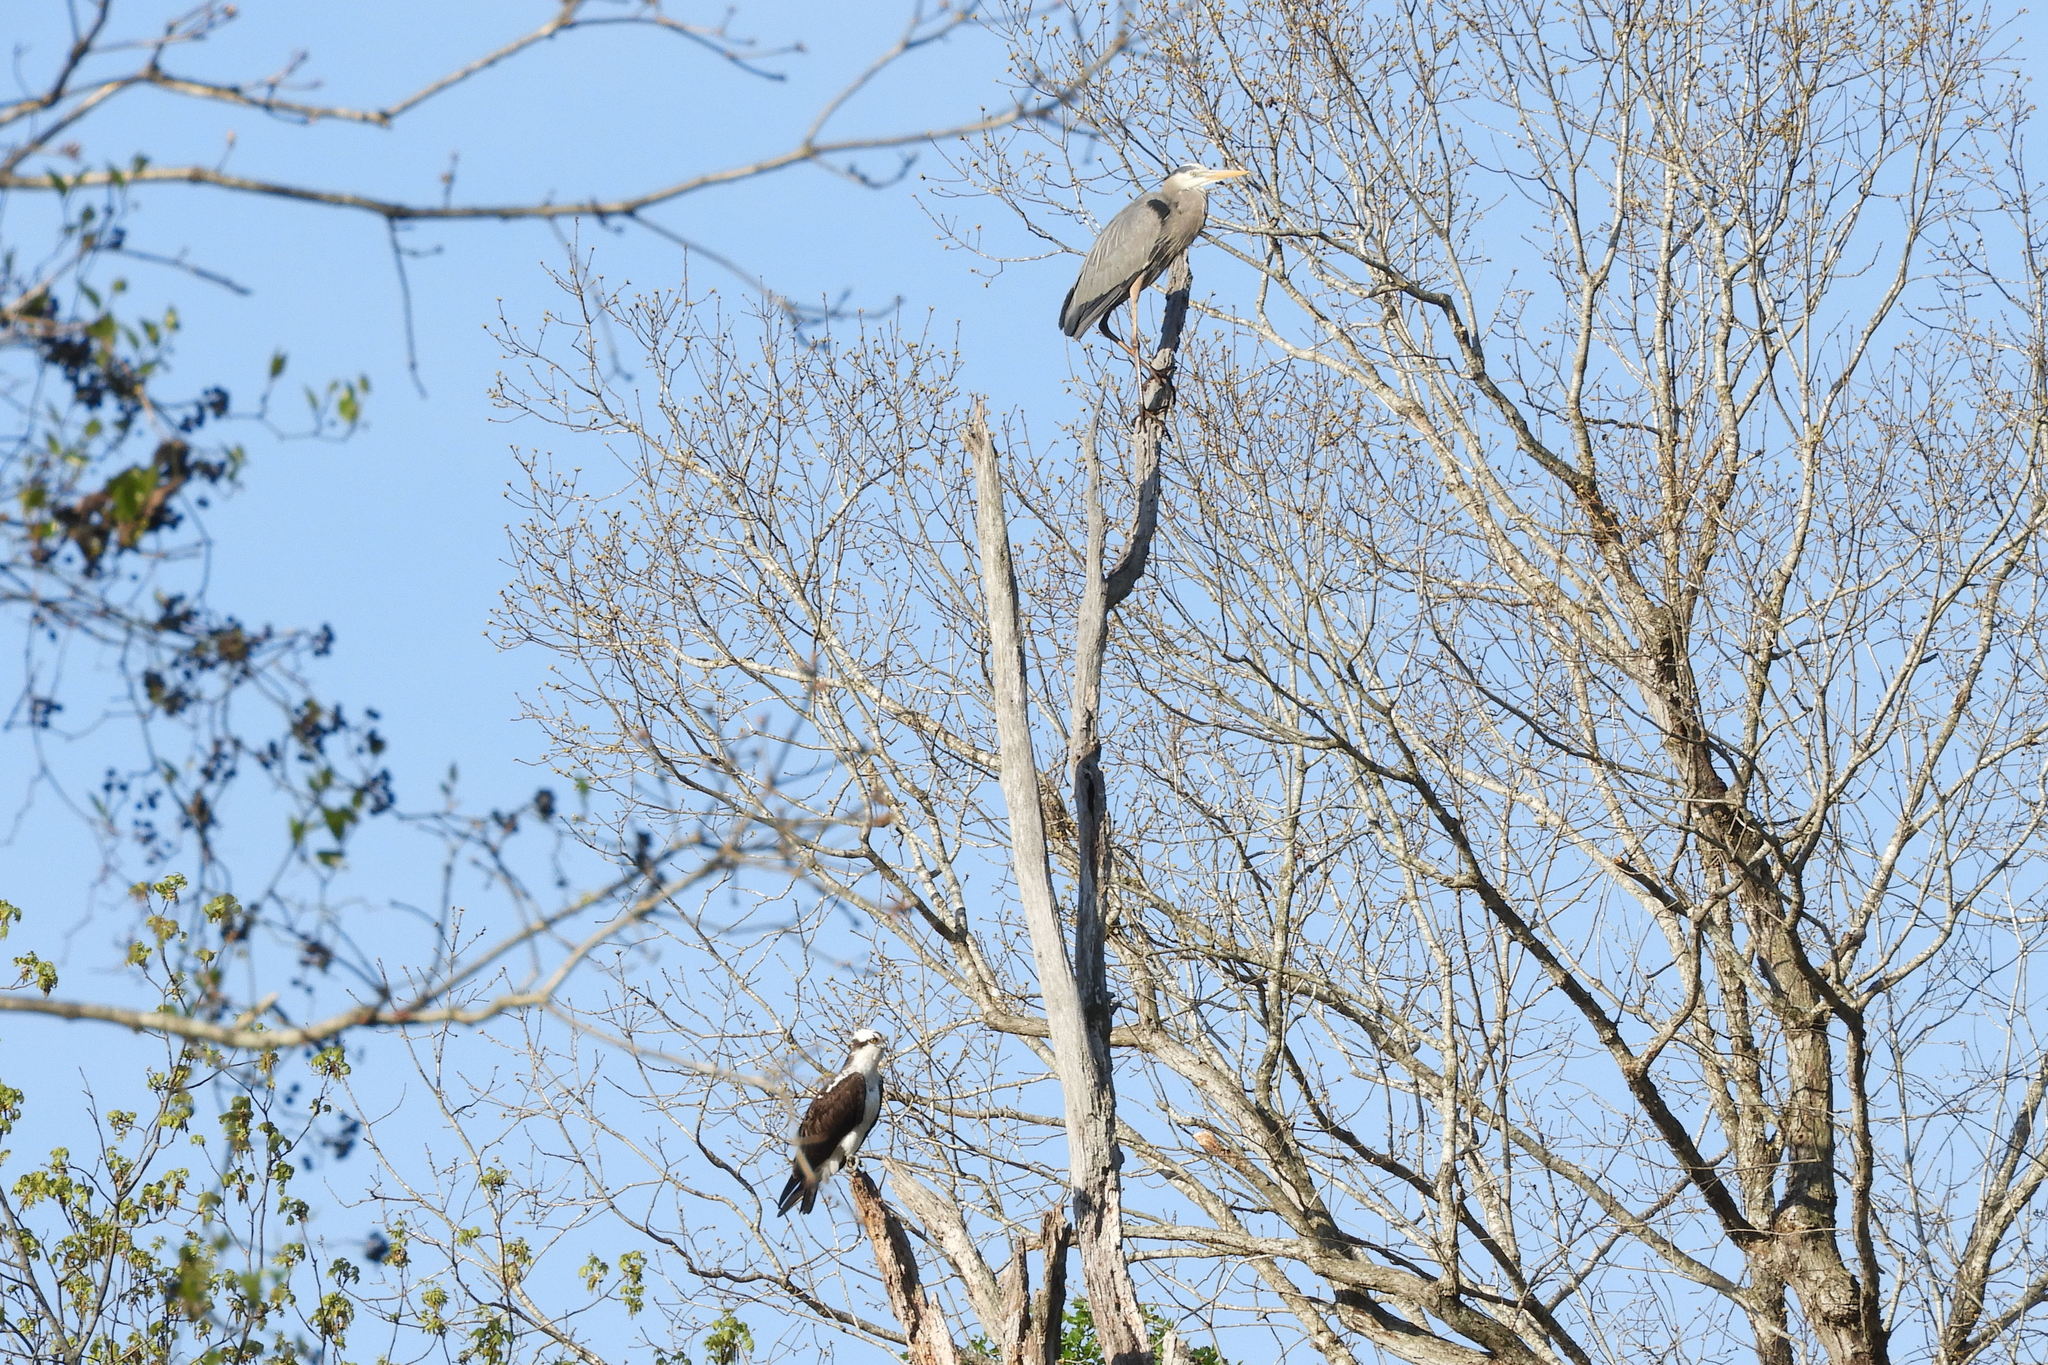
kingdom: Animalia
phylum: Chordata
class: Aves
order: Accipitriformes
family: Pandionidae
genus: Pandion
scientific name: Pandion haliaetus
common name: Osprey
